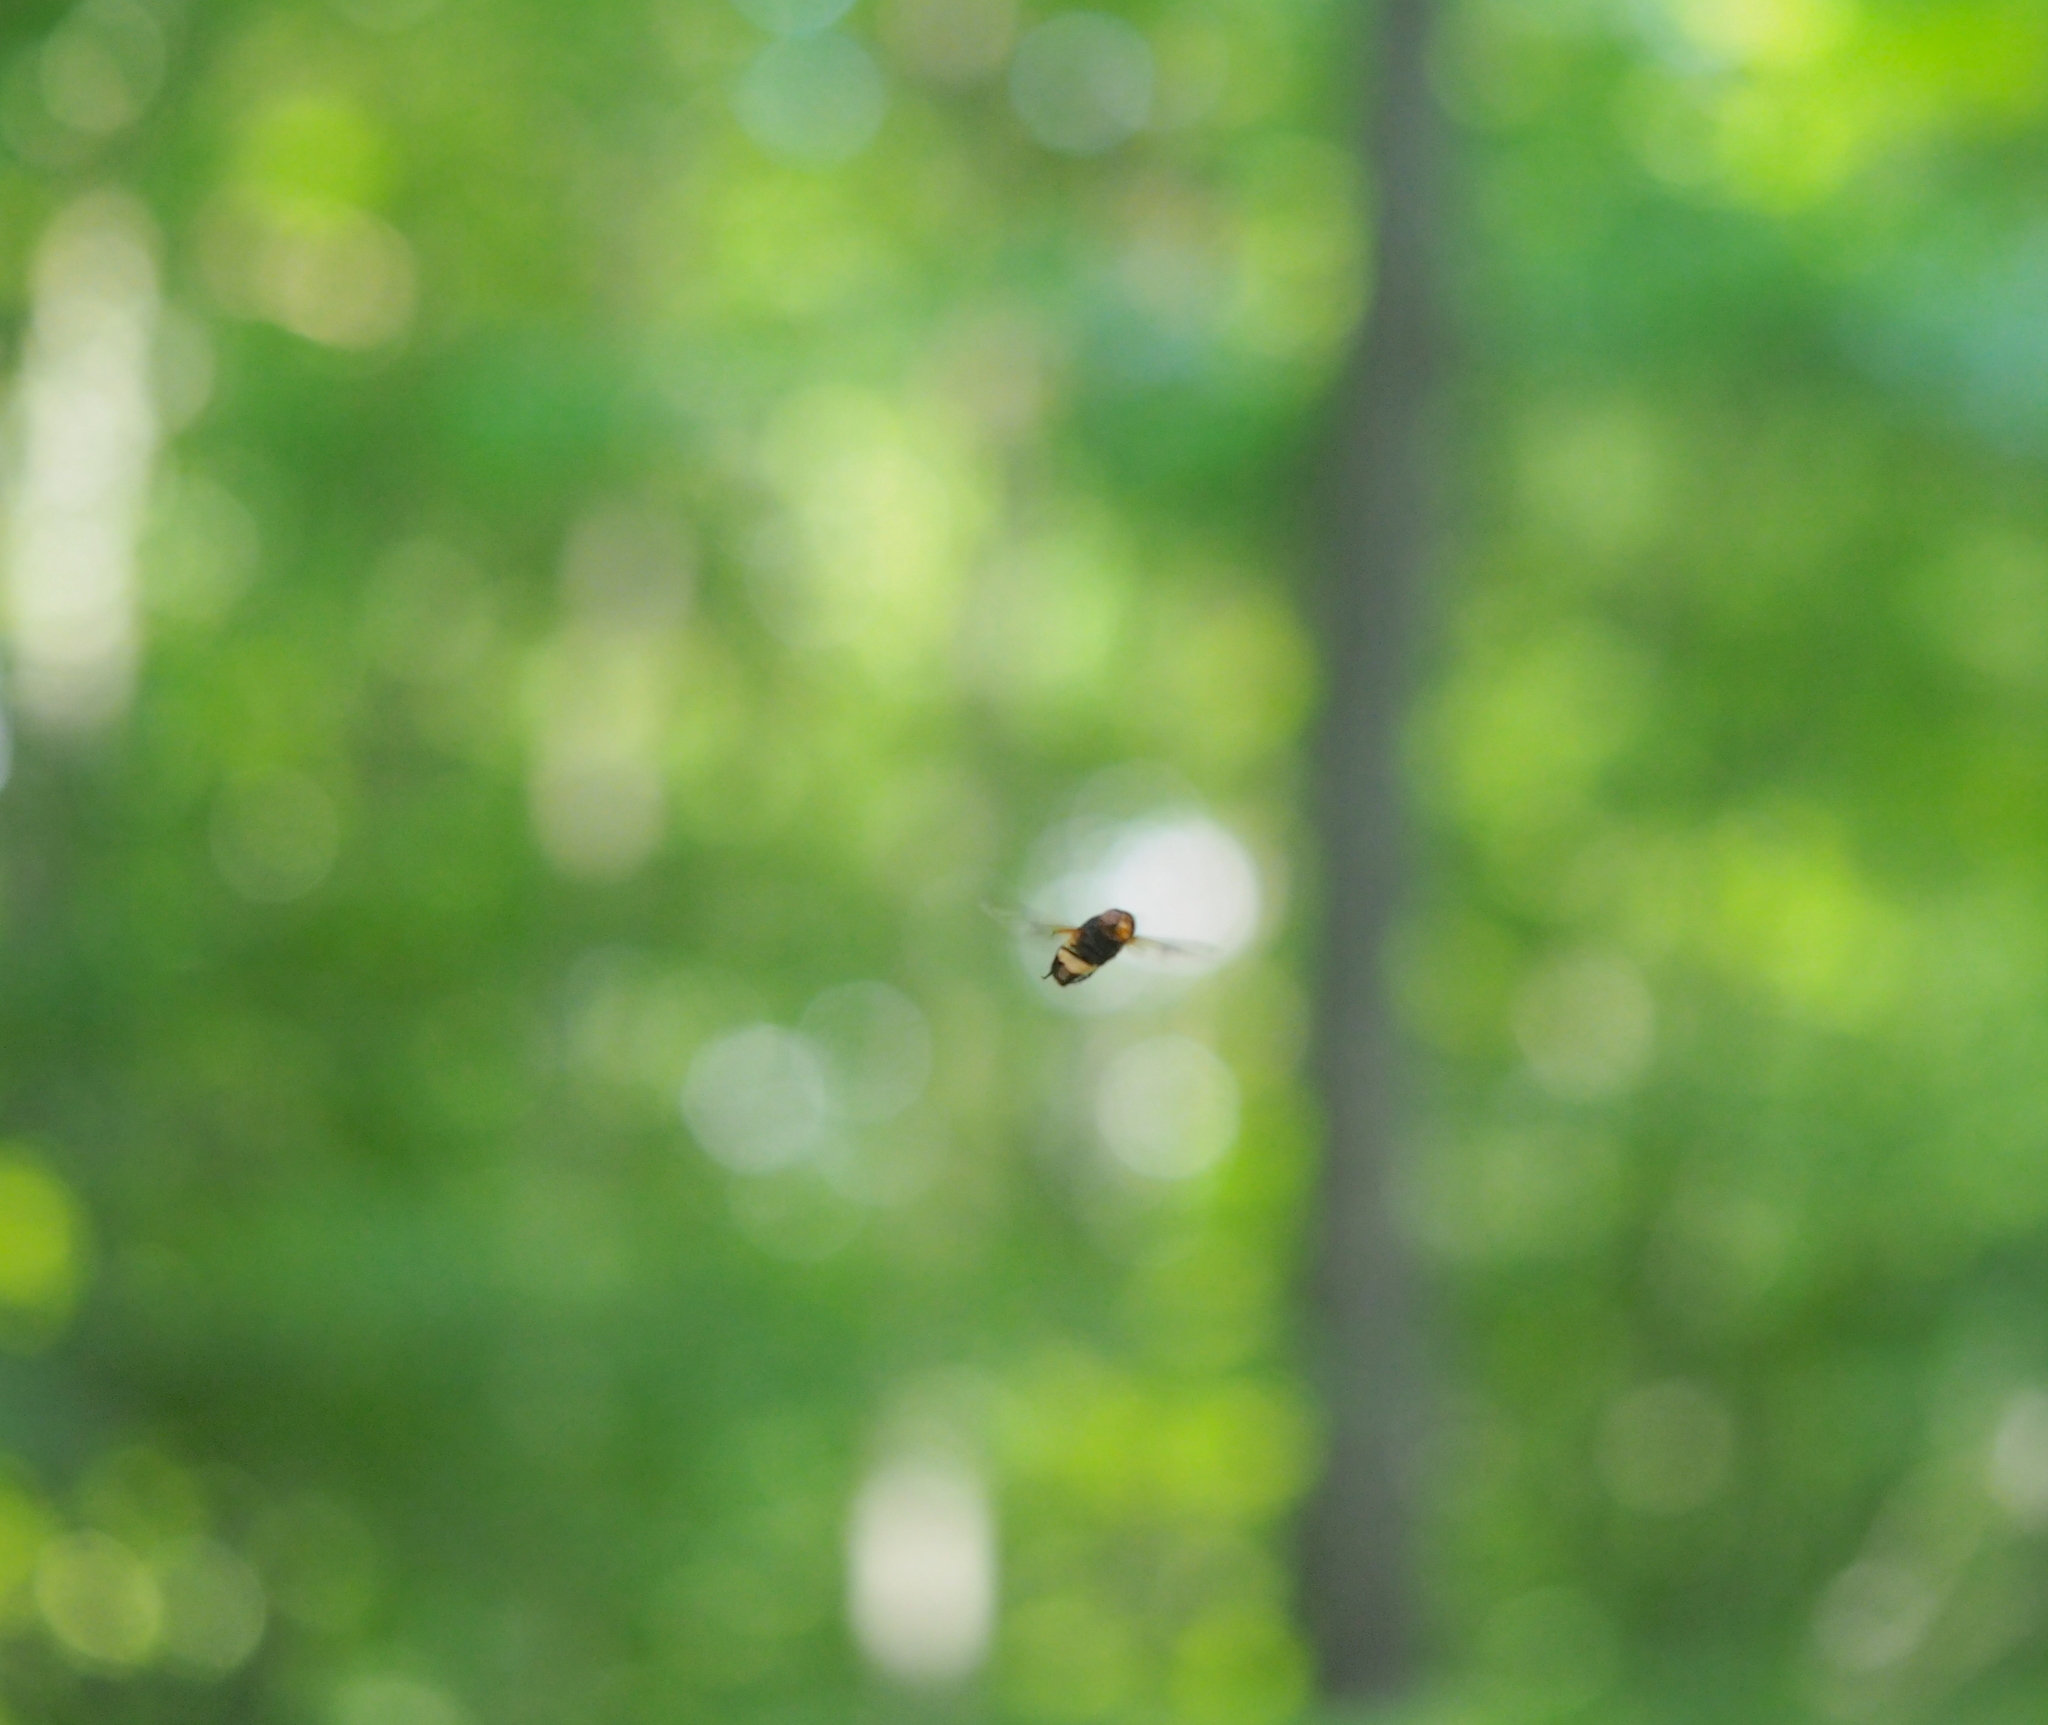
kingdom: Animalia
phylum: Arthropoda
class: Insecta
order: Diptera
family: Syrphidae
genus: Volucella
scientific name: Volucella pellucens
